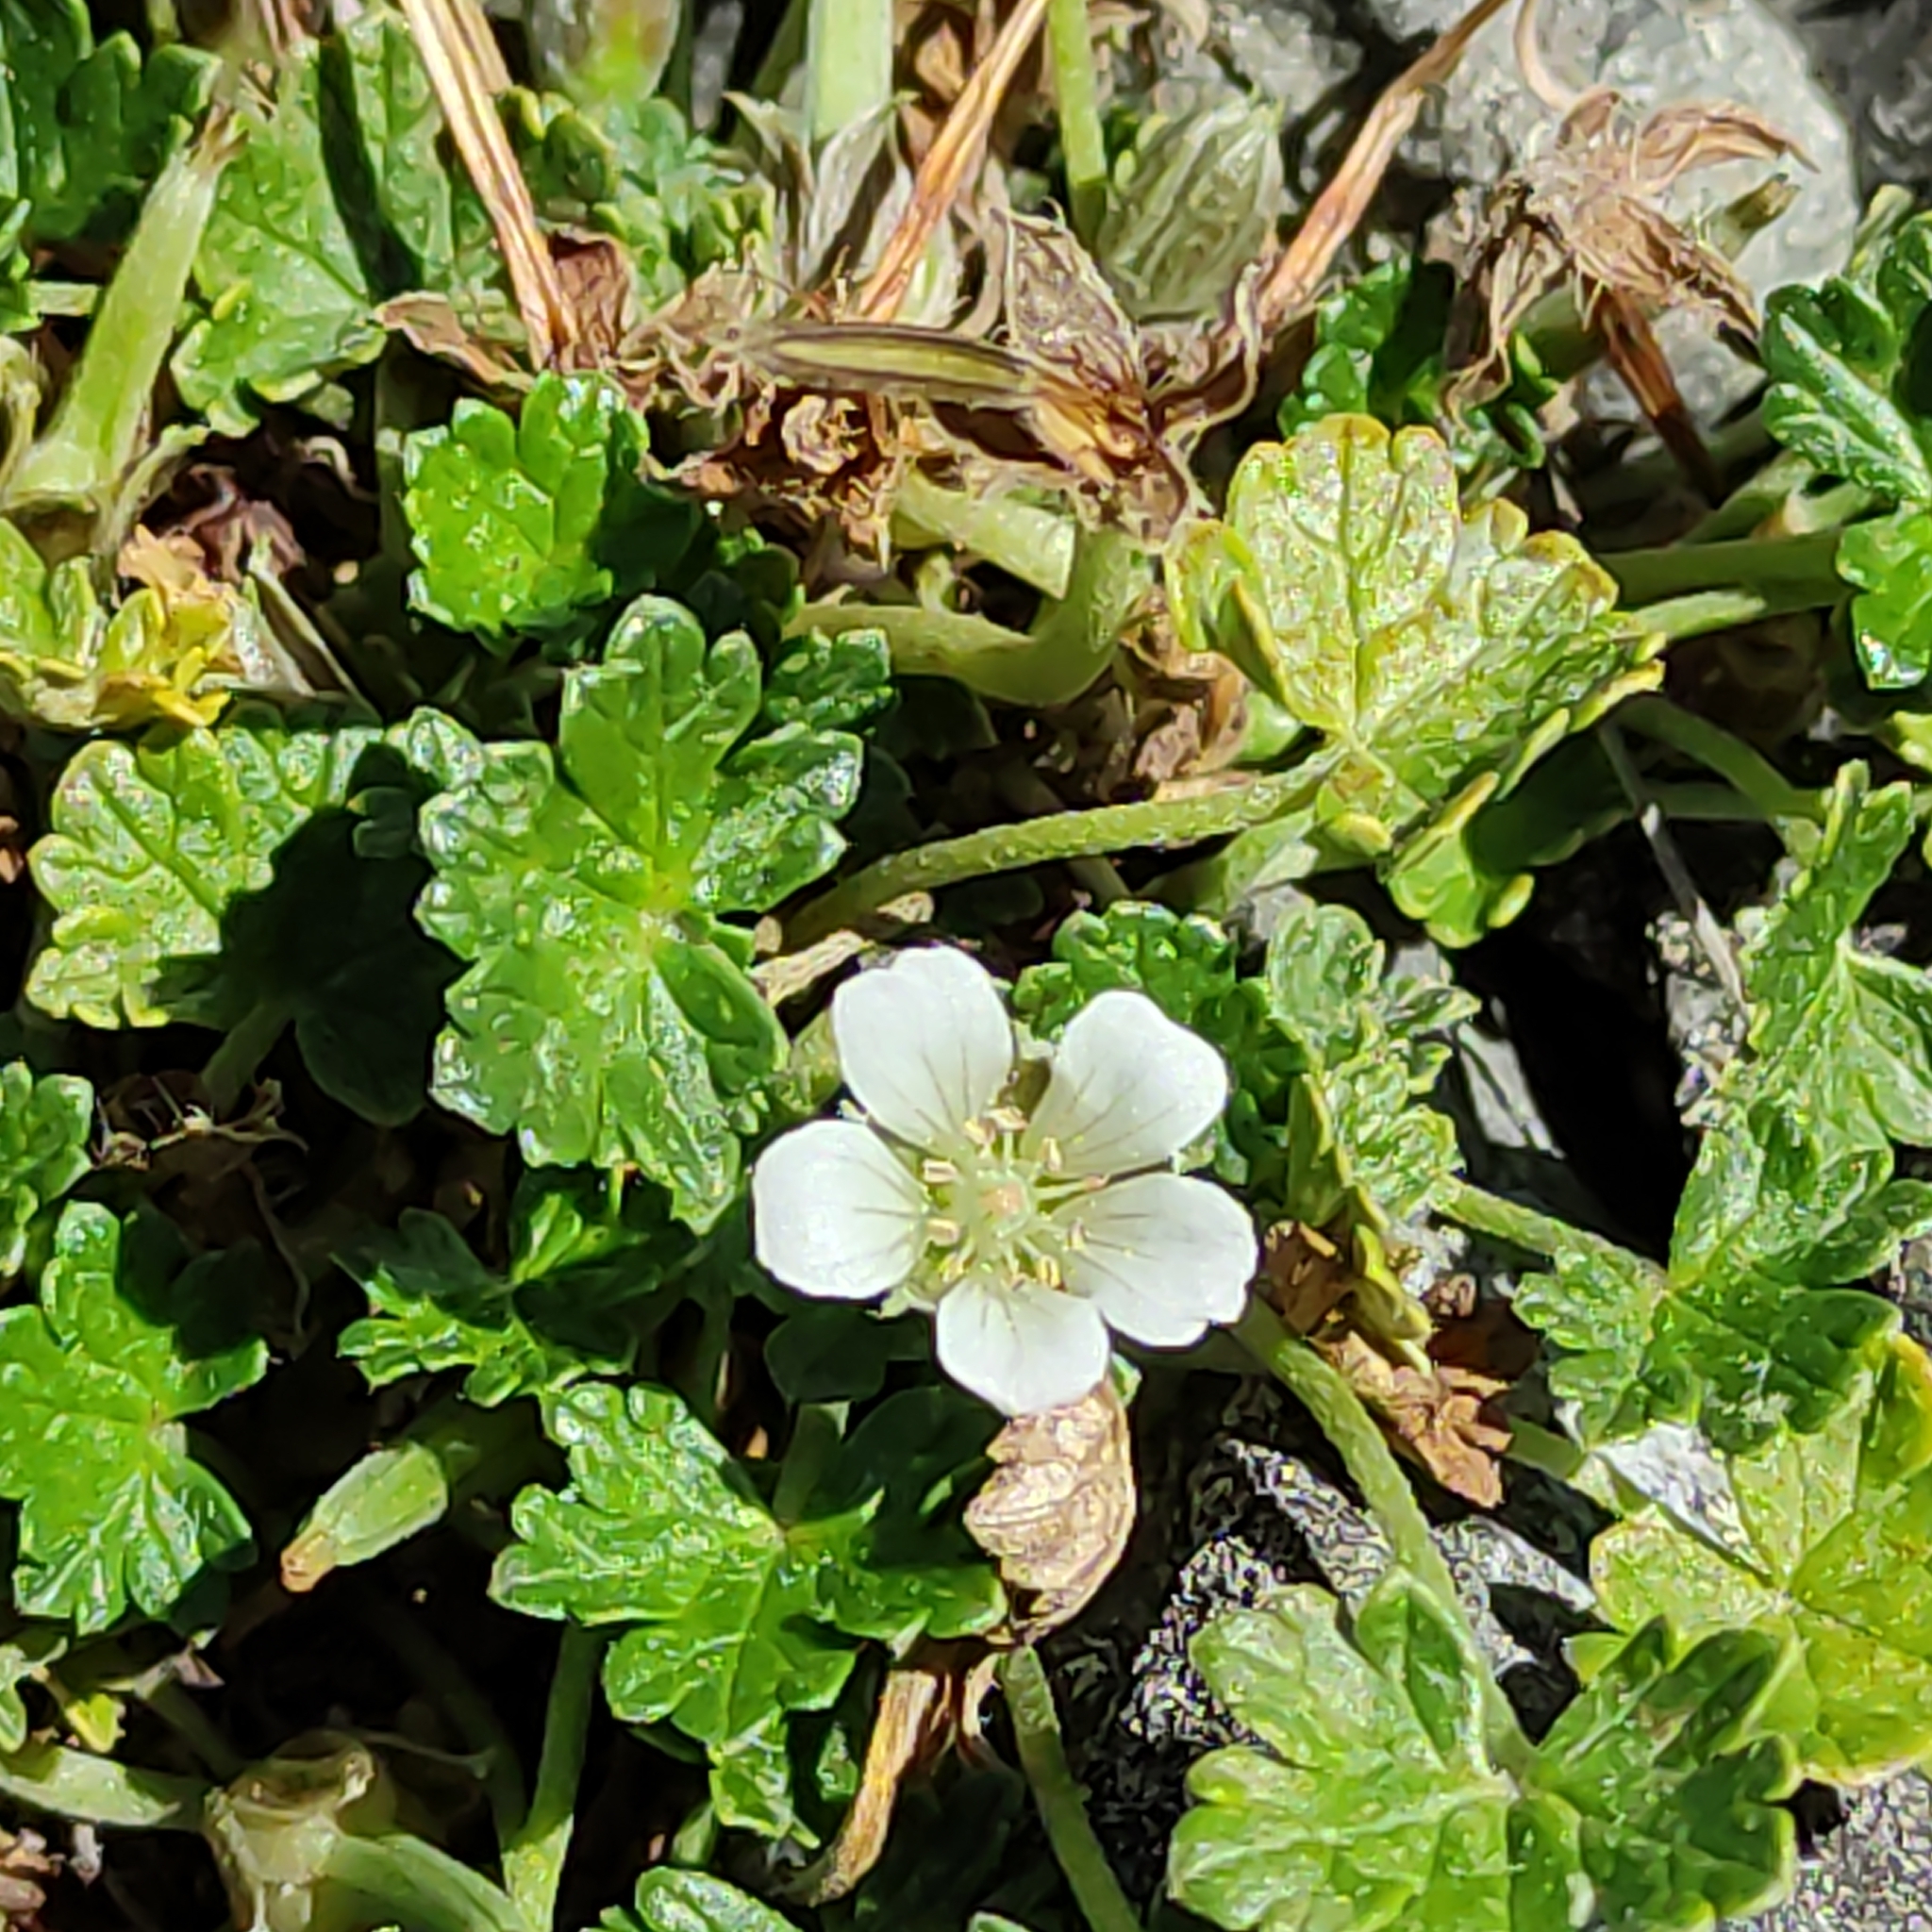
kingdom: Plantae
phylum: Tracheophyta
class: Magnoliopsida
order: Geraniales
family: Geraniaceae
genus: Geranium
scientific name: Geranium brevicaule
